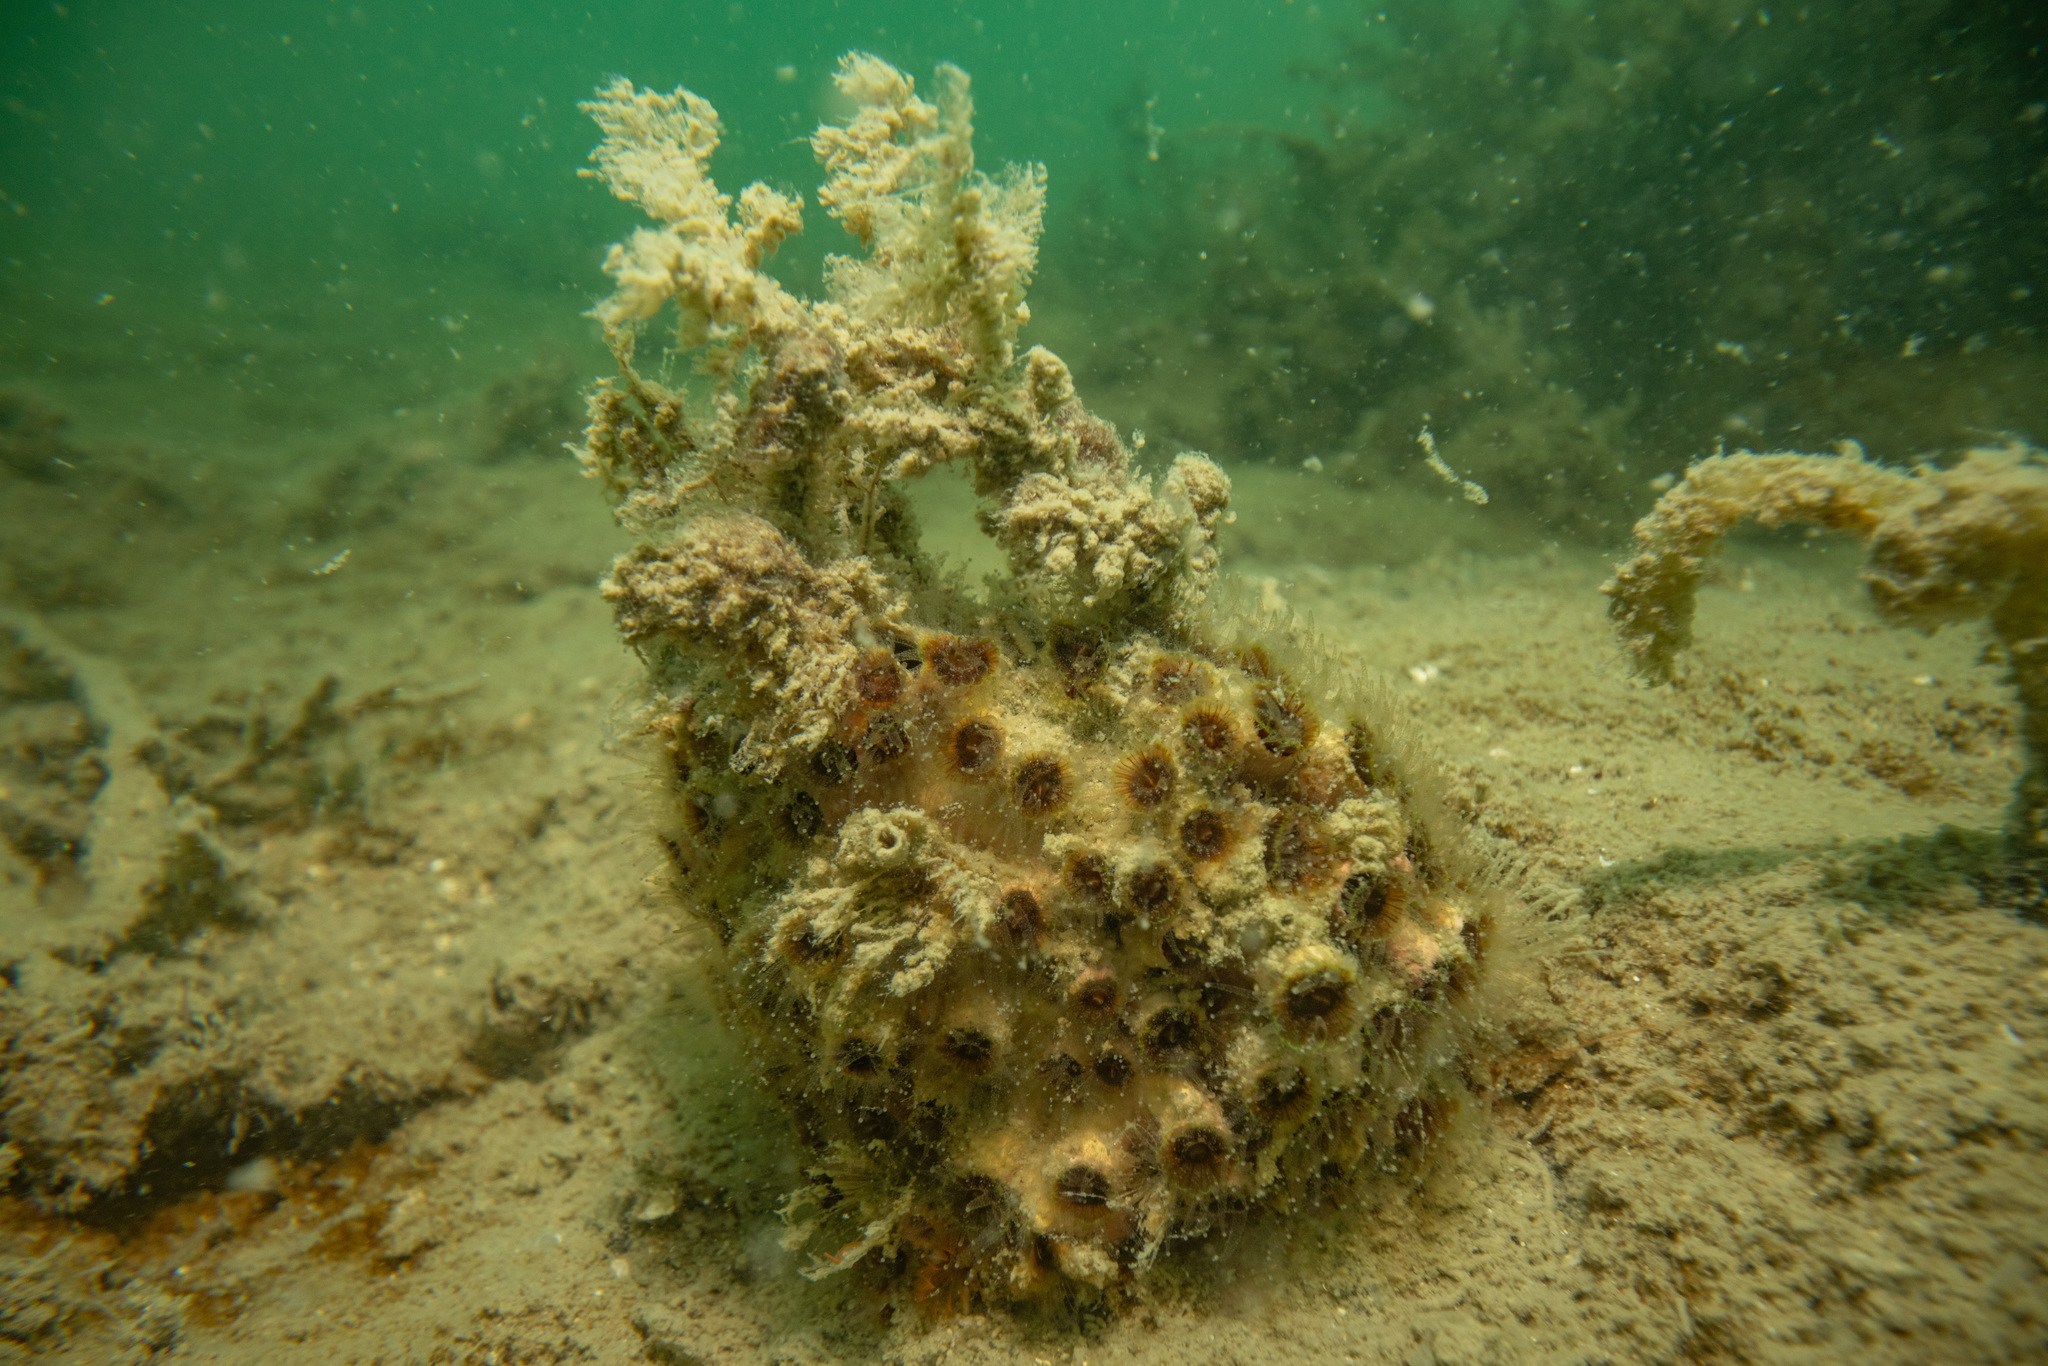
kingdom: Animalia
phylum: Cnidaria
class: Anthozoa
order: Scleractinia
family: Rhizangiidae
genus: Culicia
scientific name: Culicia rubeola
